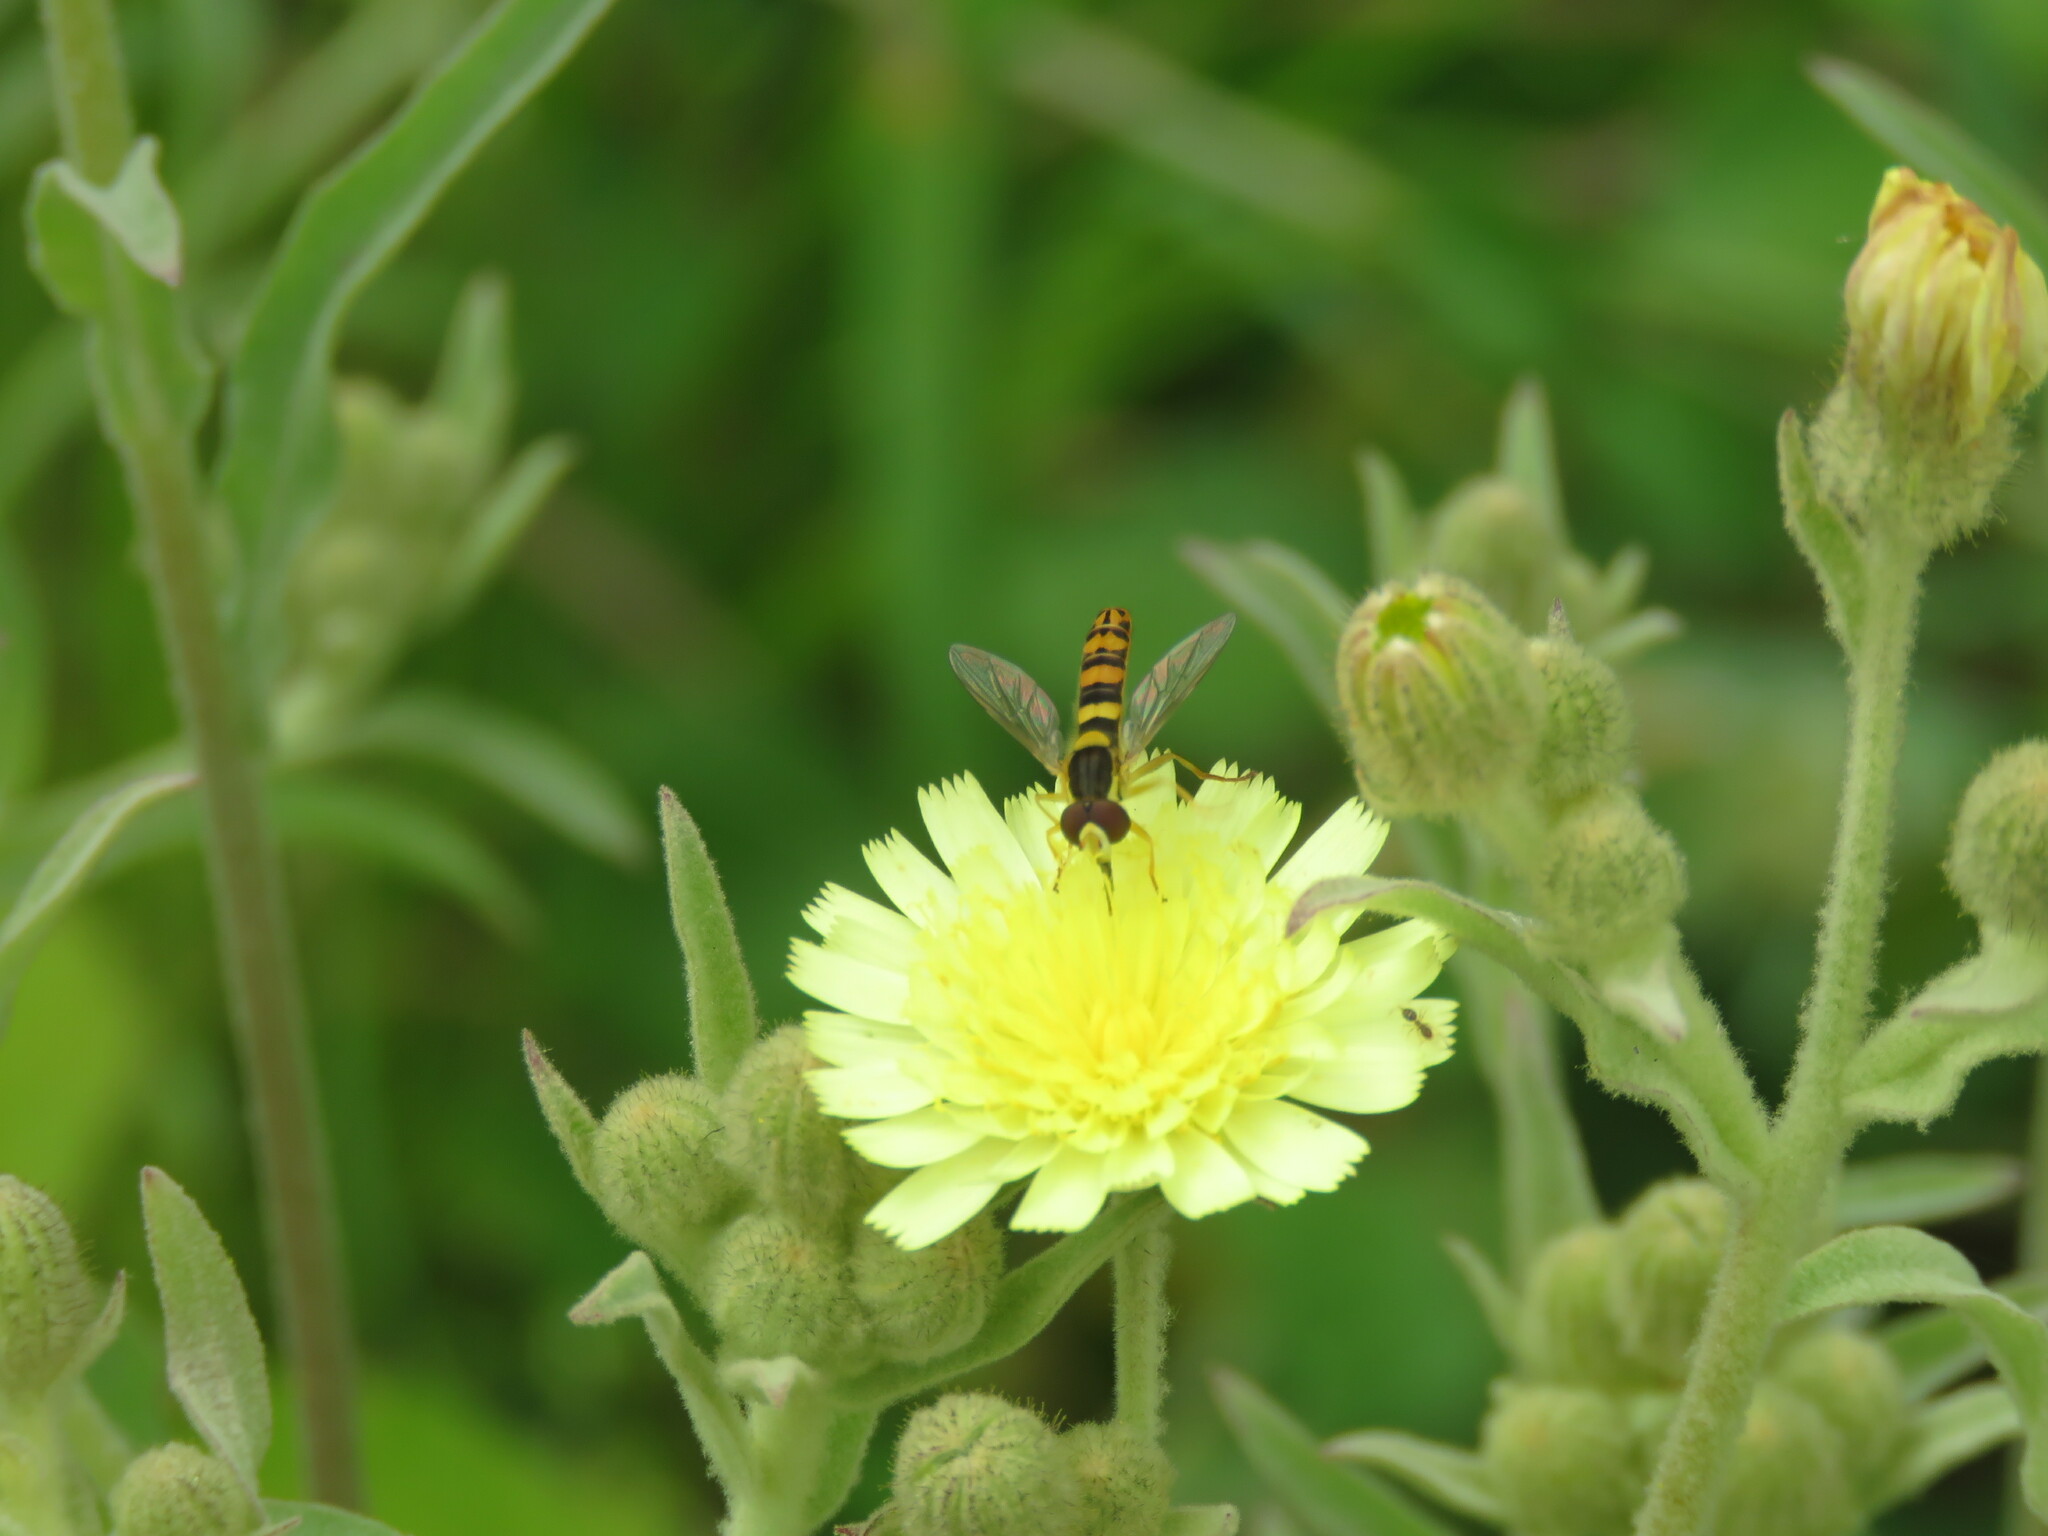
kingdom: Animalia
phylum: Arthropoda
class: Insecta
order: Diptera
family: Syrphidae
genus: Sphaerophoria
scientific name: Sphaerophoria scripta
